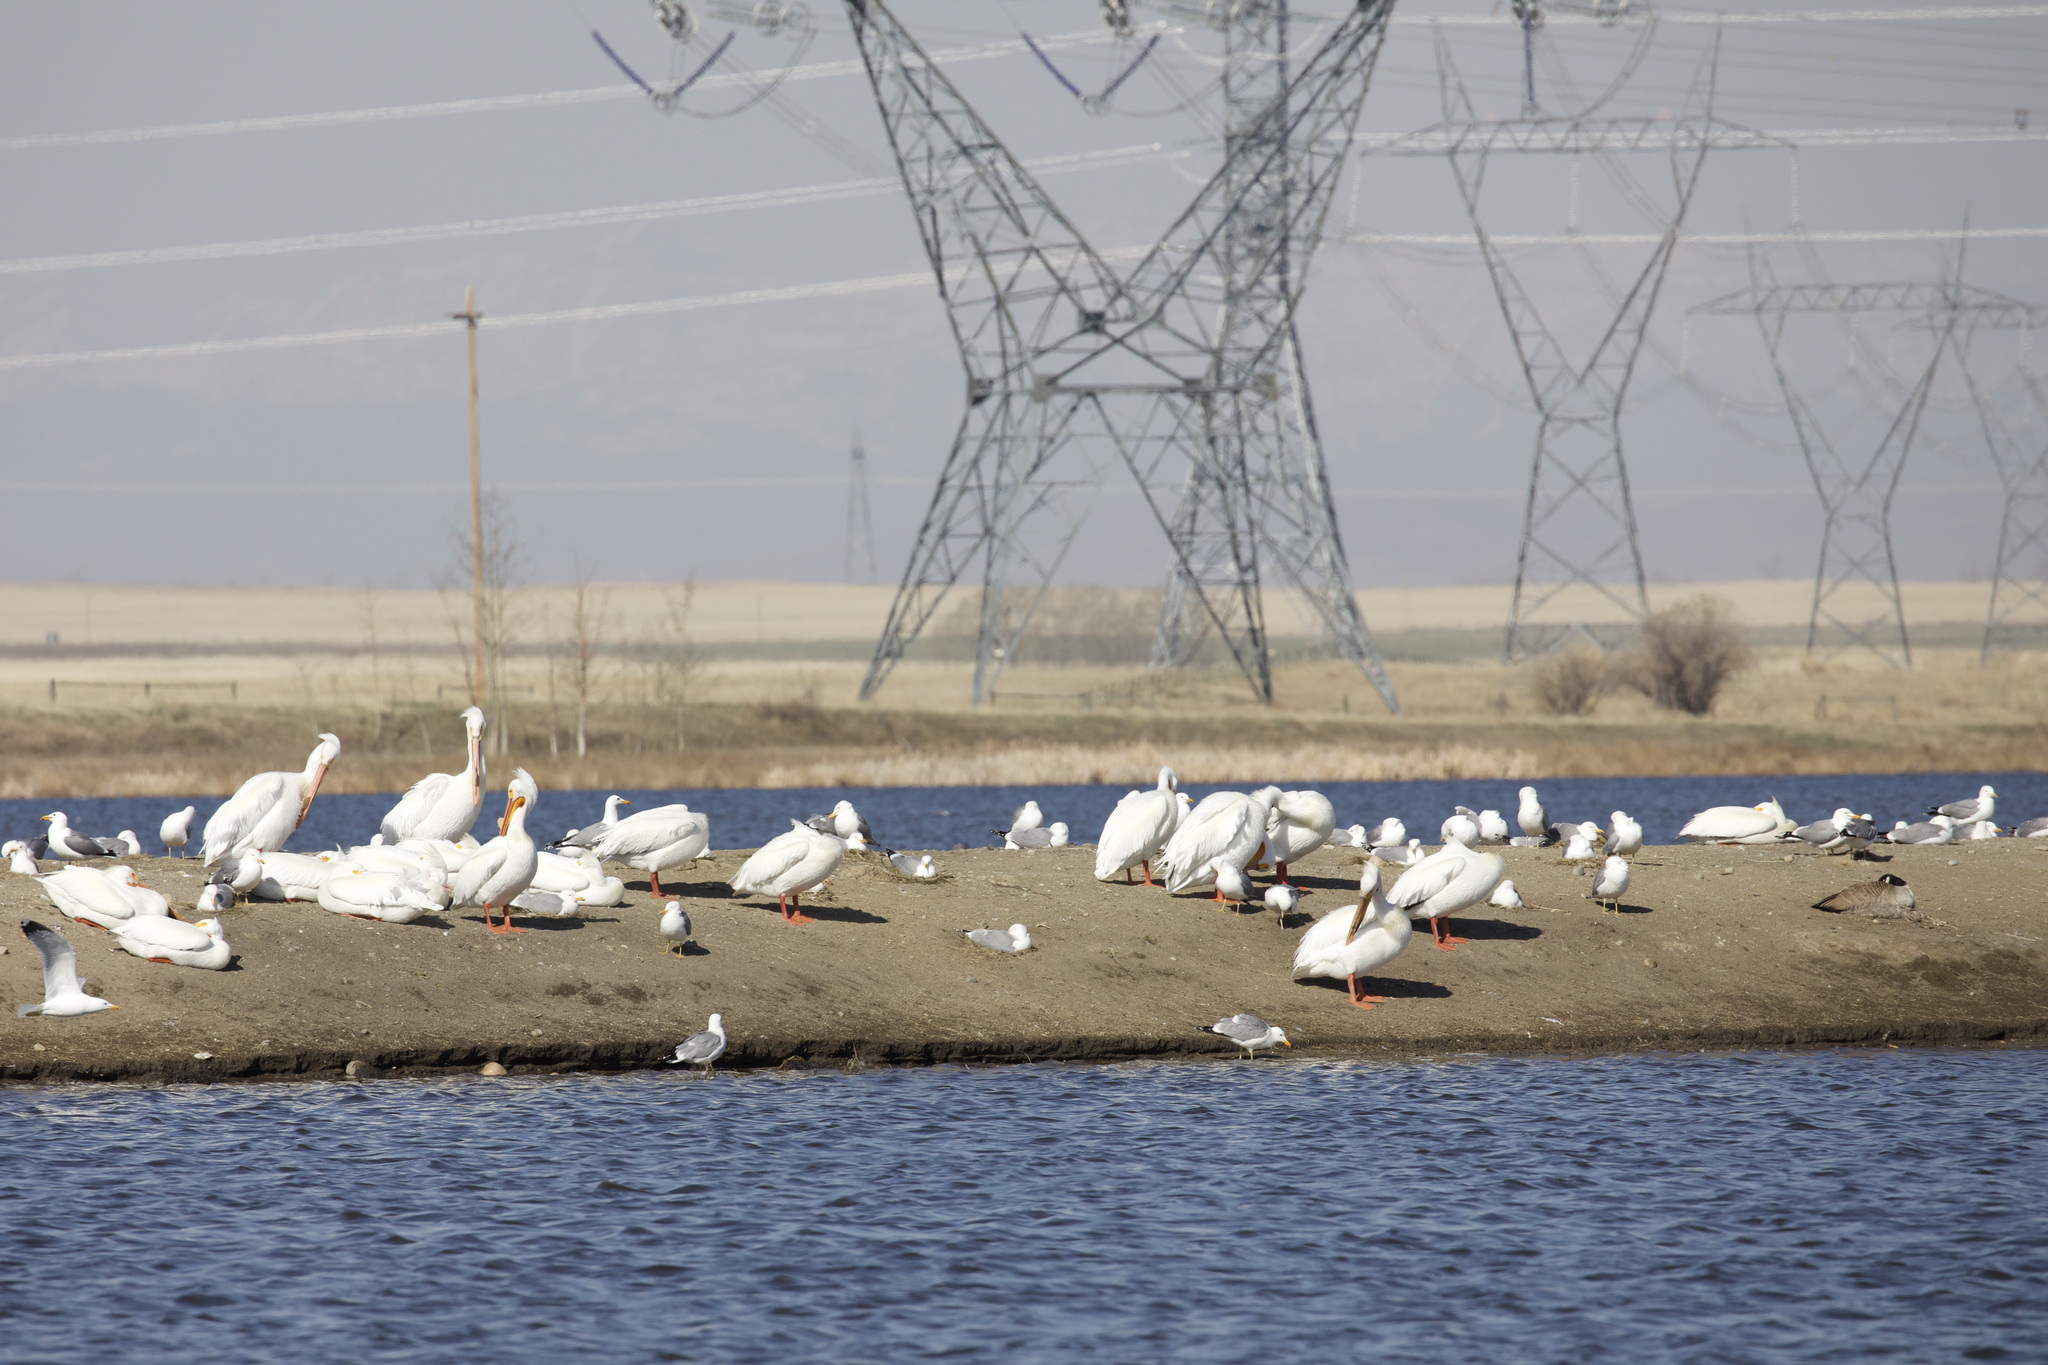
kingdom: Animalia
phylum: Chordata
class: Aves
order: Pelecaniformes
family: Pelecanidae
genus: Pelecanus
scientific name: Pelecanus erythrorhynchos
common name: American white pelican
